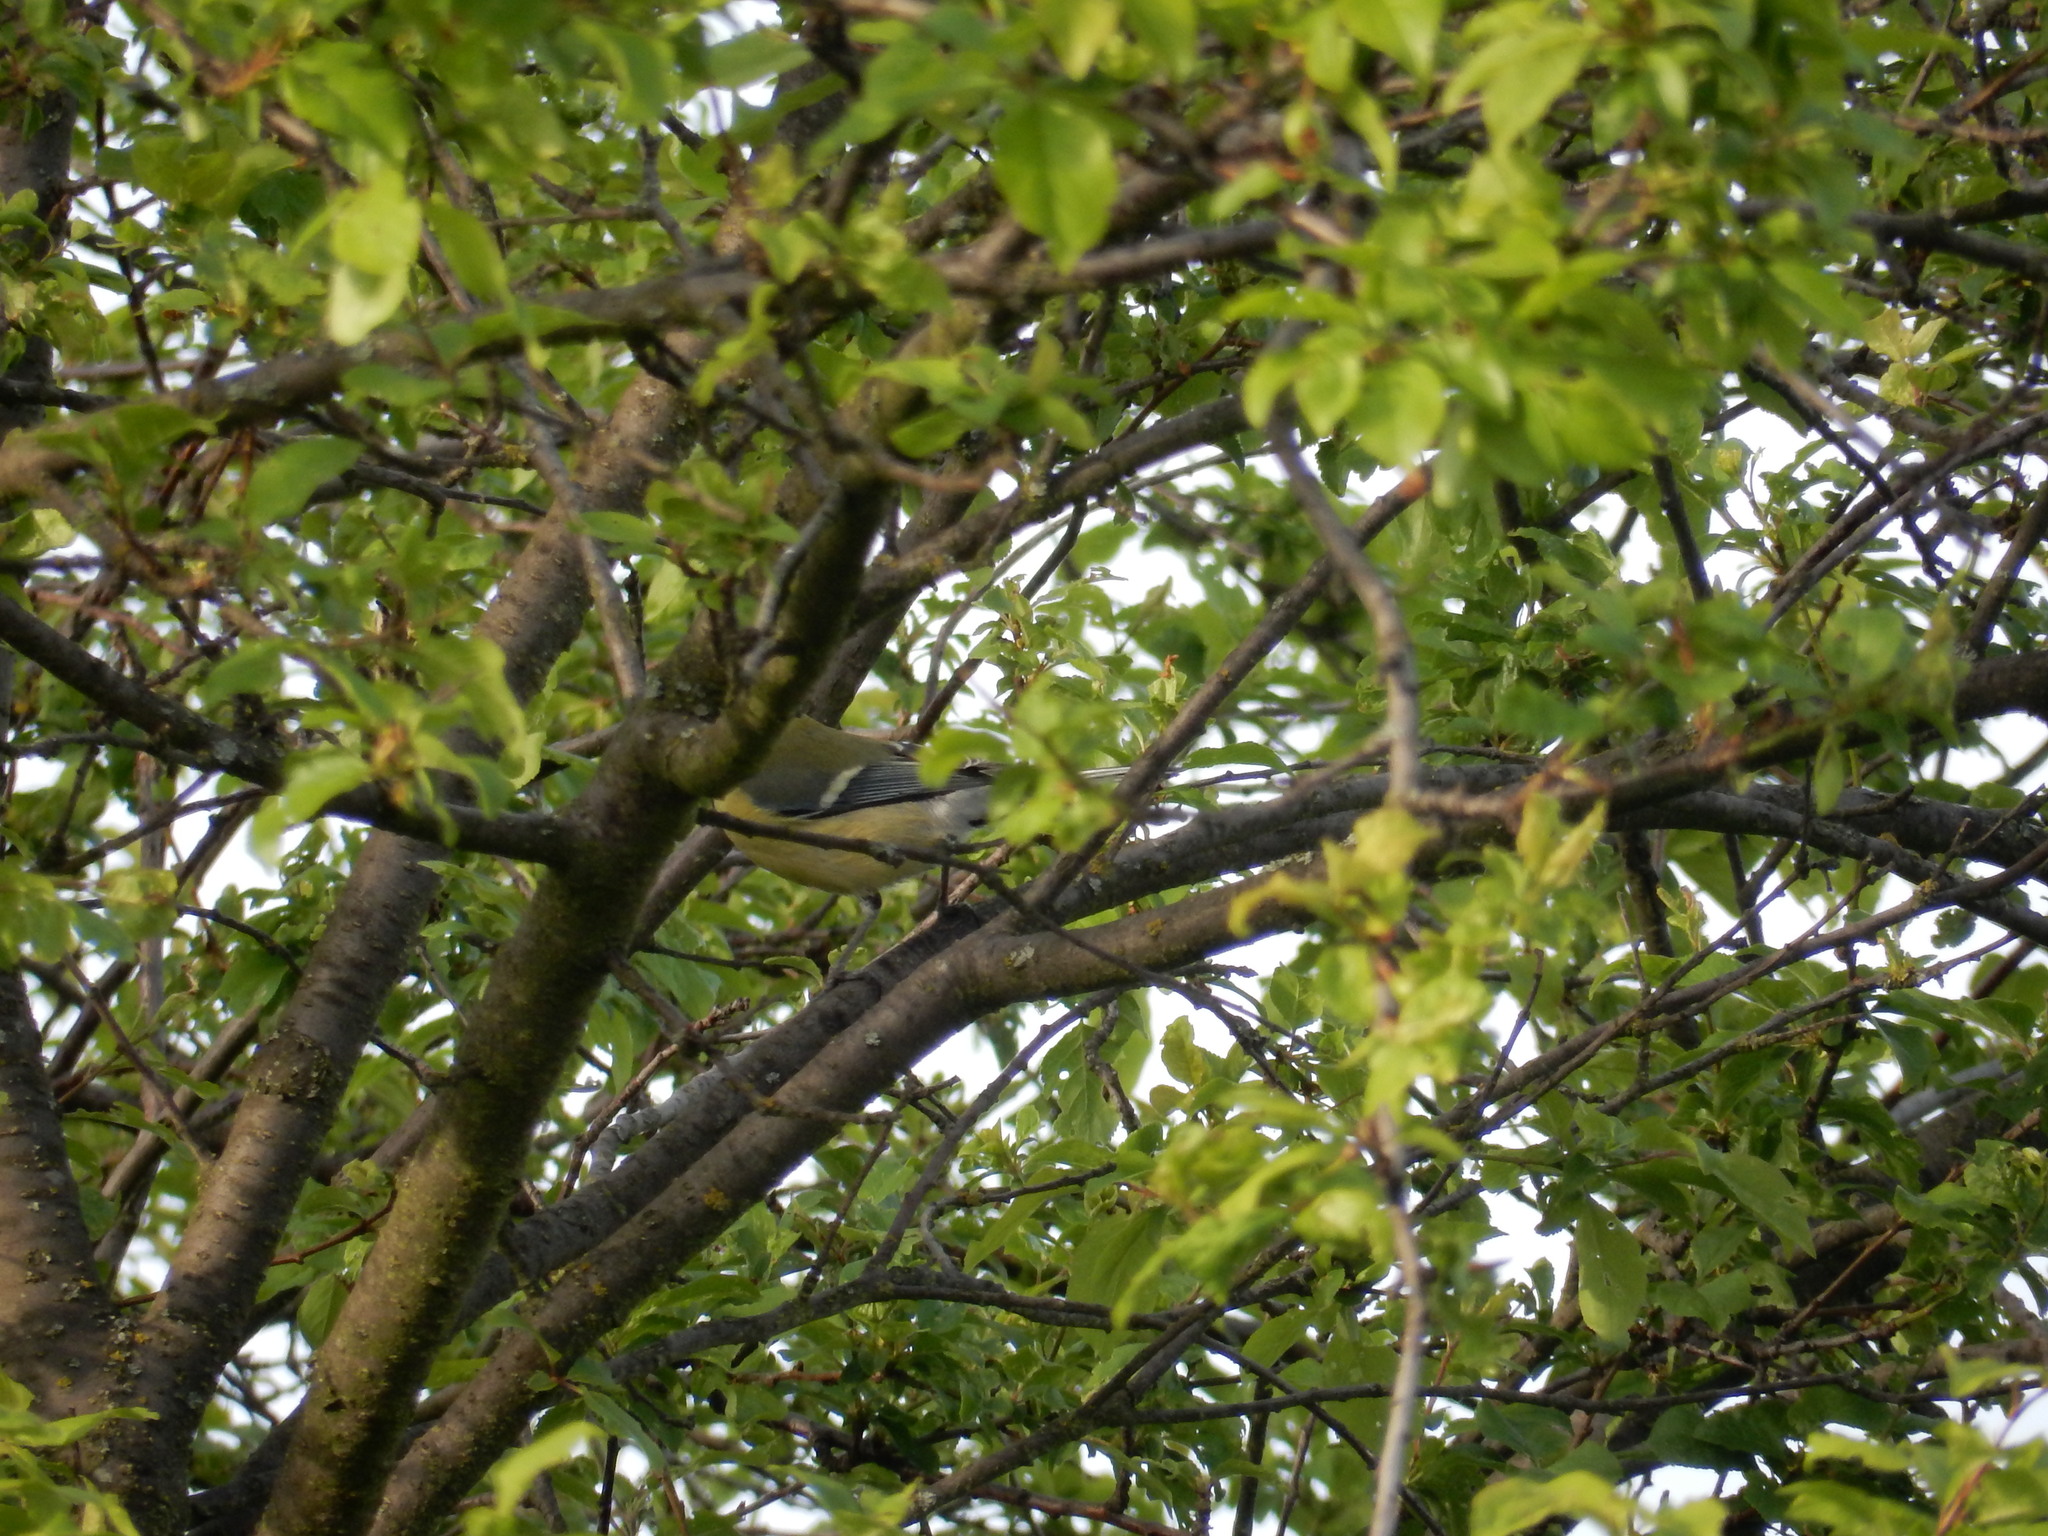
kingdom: Animalia
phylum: Chordata
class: Aves
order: Passeriformes
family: Paridae
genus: Parus
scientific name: Parus major
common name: Great tit
